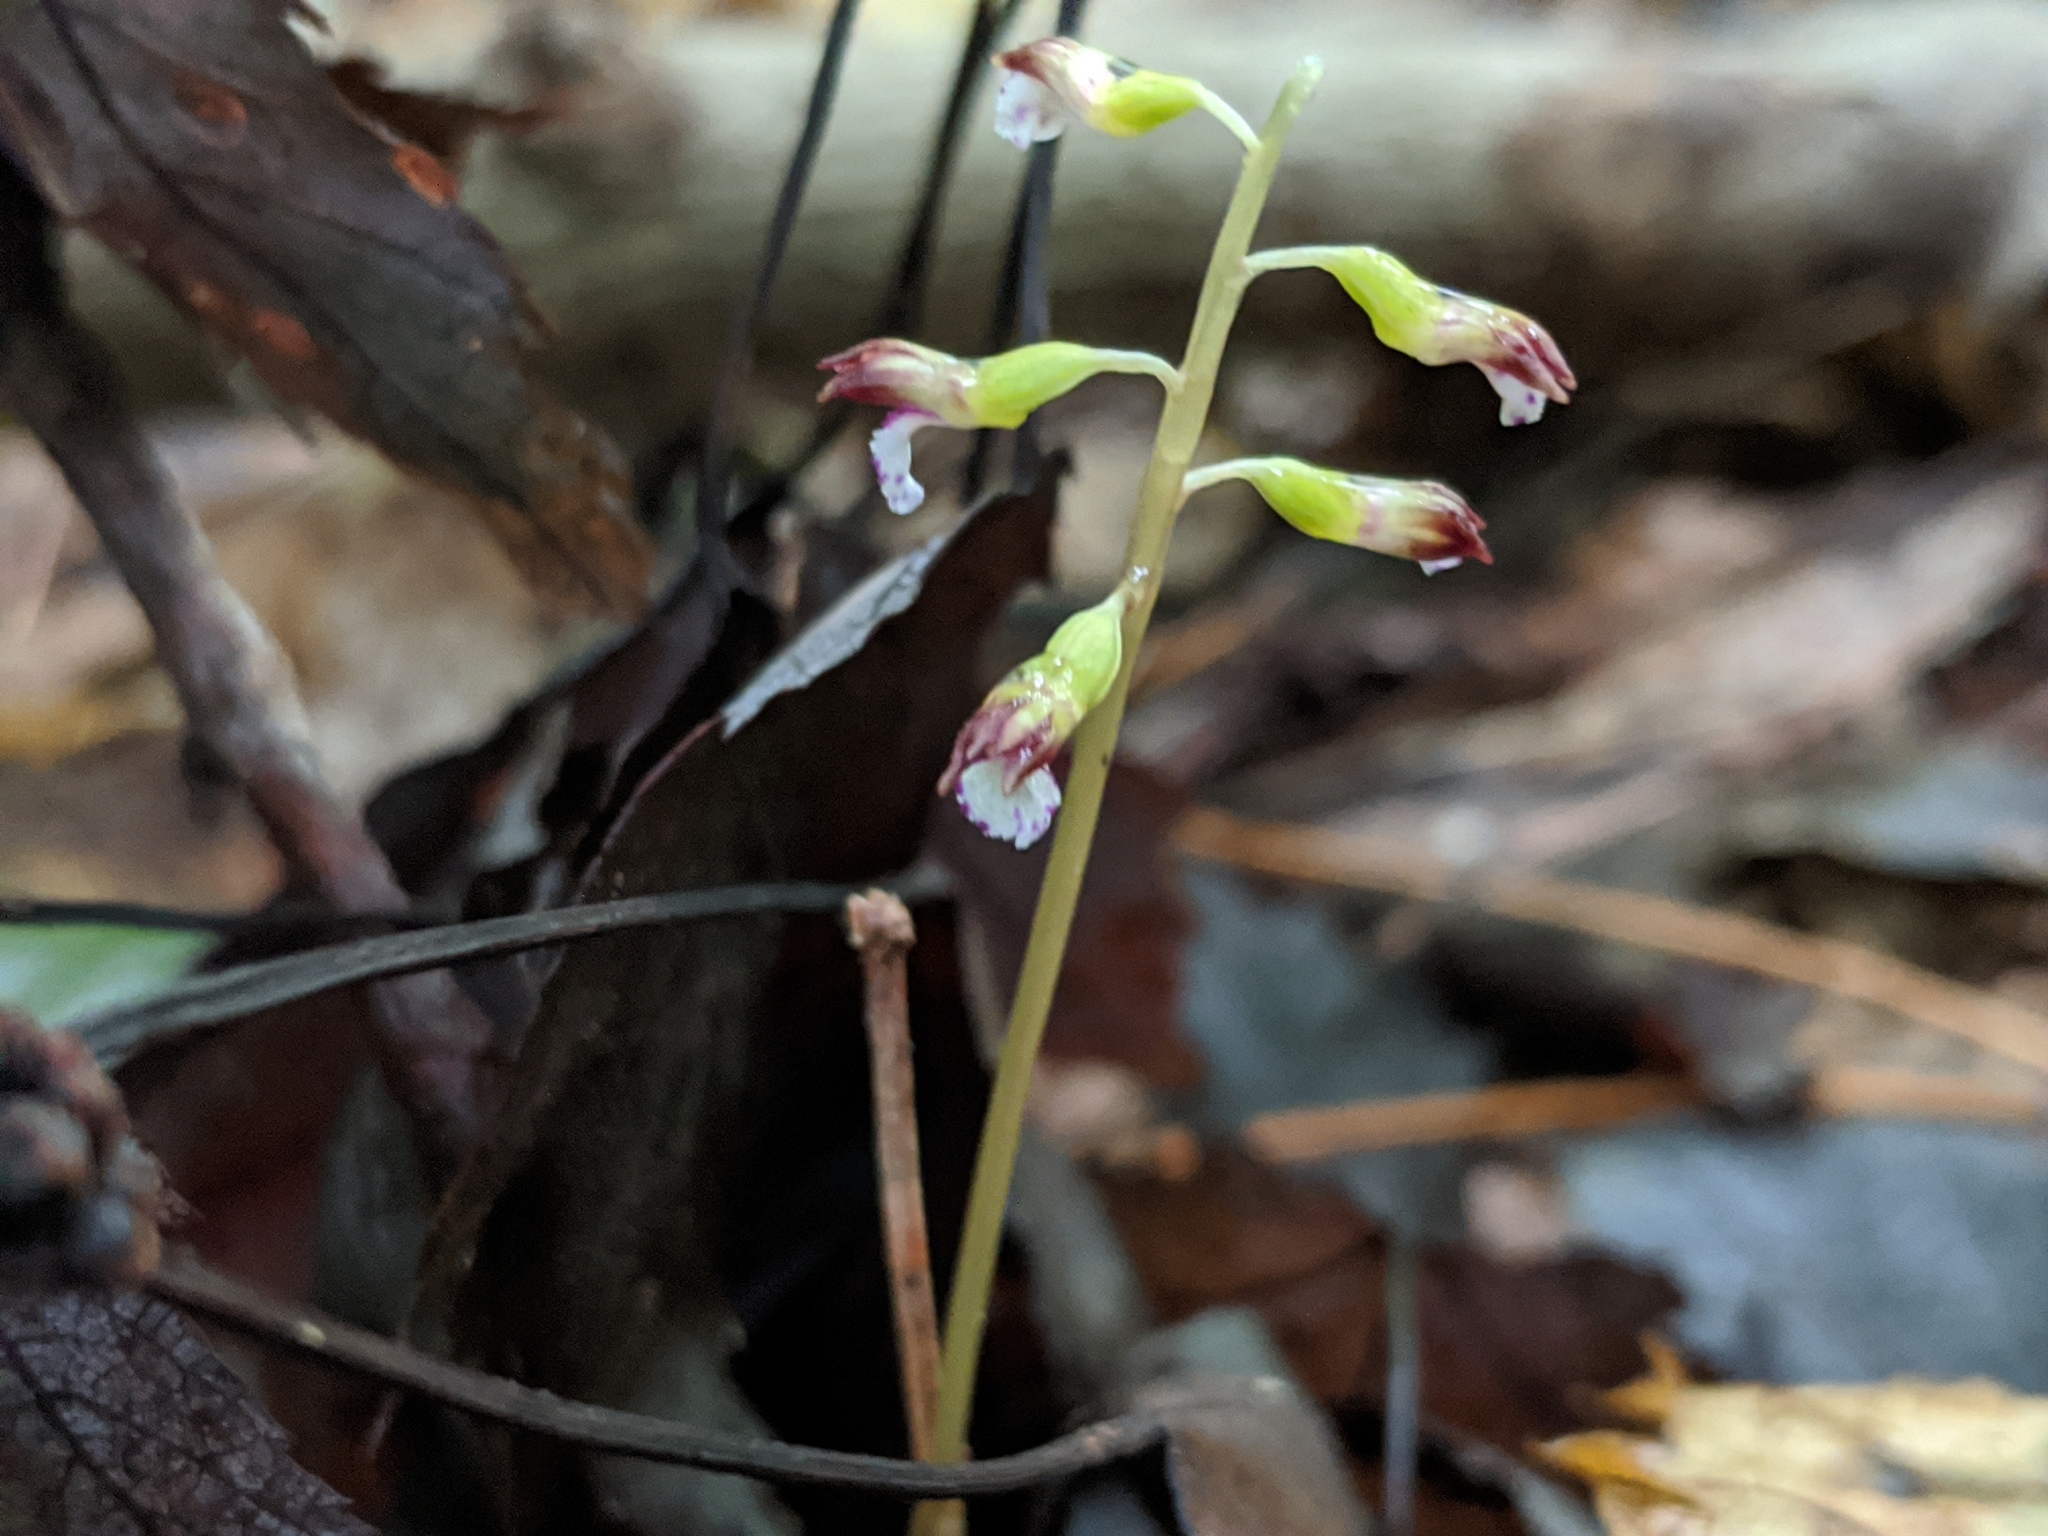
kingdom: Plantae
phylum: Tracheophyta
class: Liliopsida
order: Asparagales
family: Orchidaceae
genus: Corallorhiza
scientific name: Corallorhiza odontorhiza
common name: Autumn coralroot
